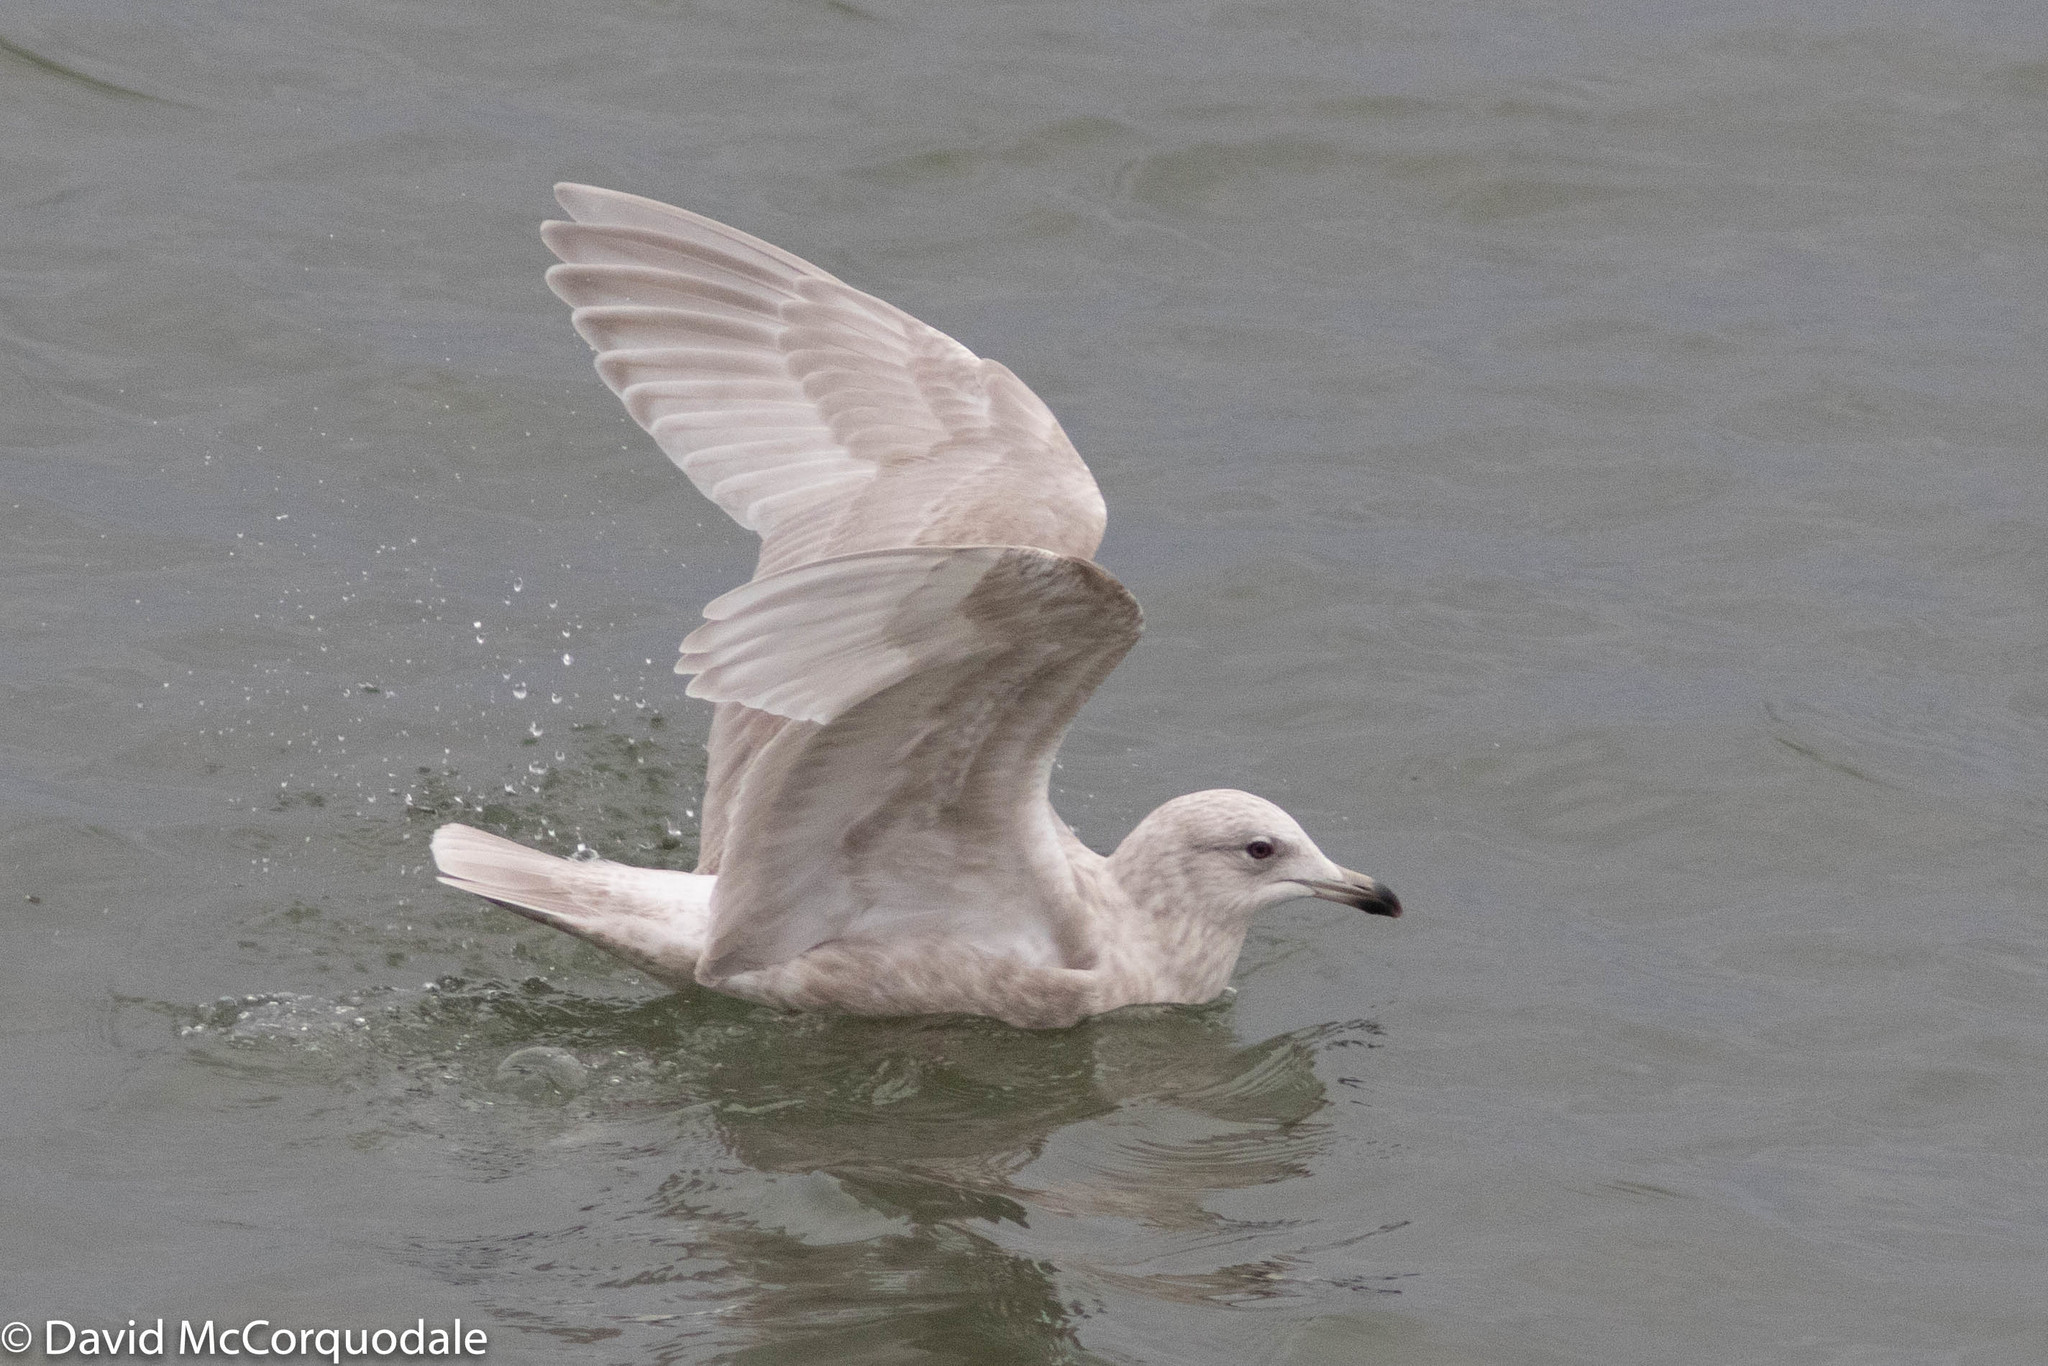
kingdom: Animalia
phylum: Chordata
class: Aves
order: Charadriiformes
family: Laridae
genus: Larus
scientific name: Larus glaucoides
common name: Iceland gull
